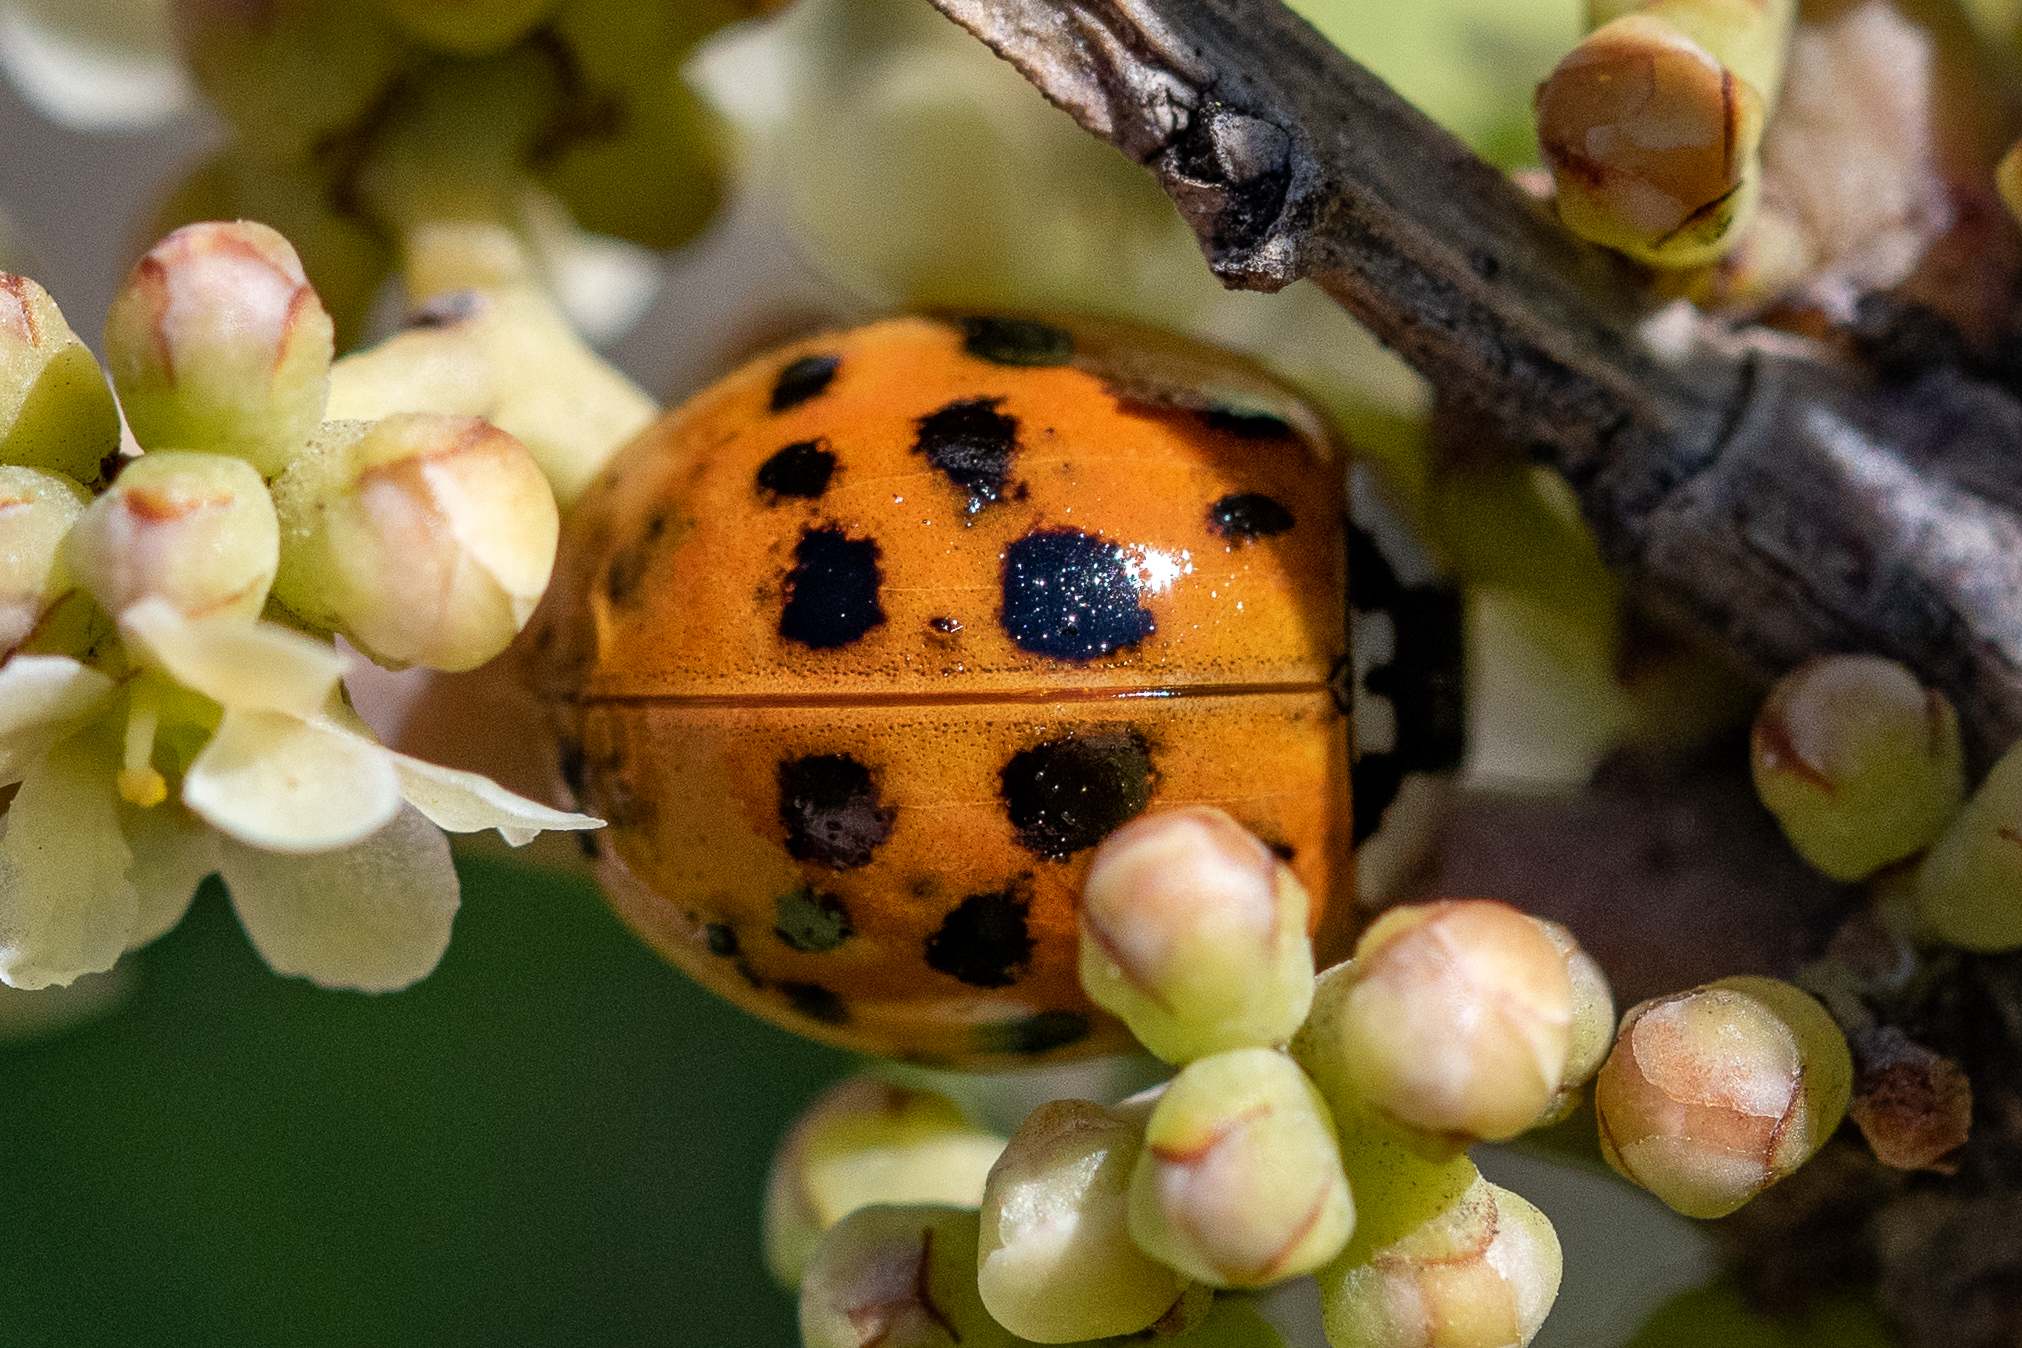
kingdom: Animalia
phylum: Arthropoda
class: Insecta
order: Coleoptera
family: Coccinellidae
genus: Harmonia
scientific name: Harmonia axyridis
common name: Harlequin ladybird
